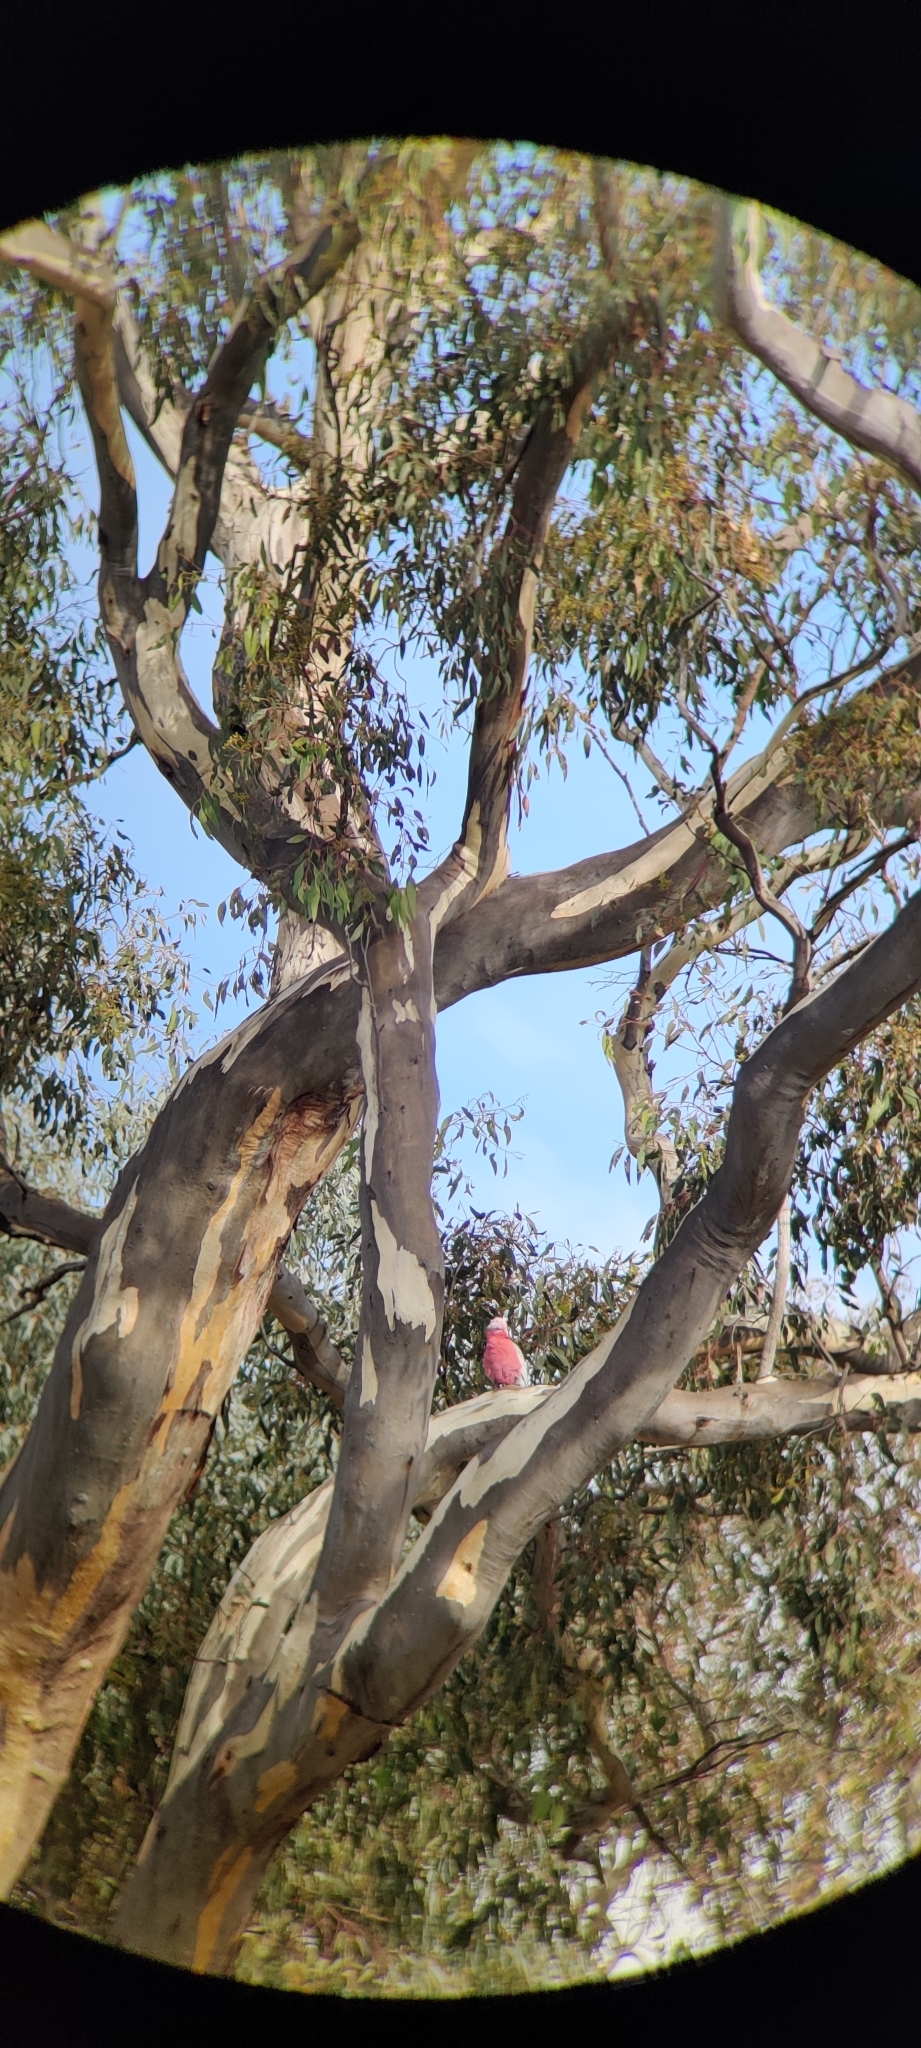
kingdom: Animalia
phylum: Chordata
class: Aves
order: Psittaciformes
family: Psittacidae
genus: Eolophus
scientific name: Eolophus roseicapilla
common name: Galah
